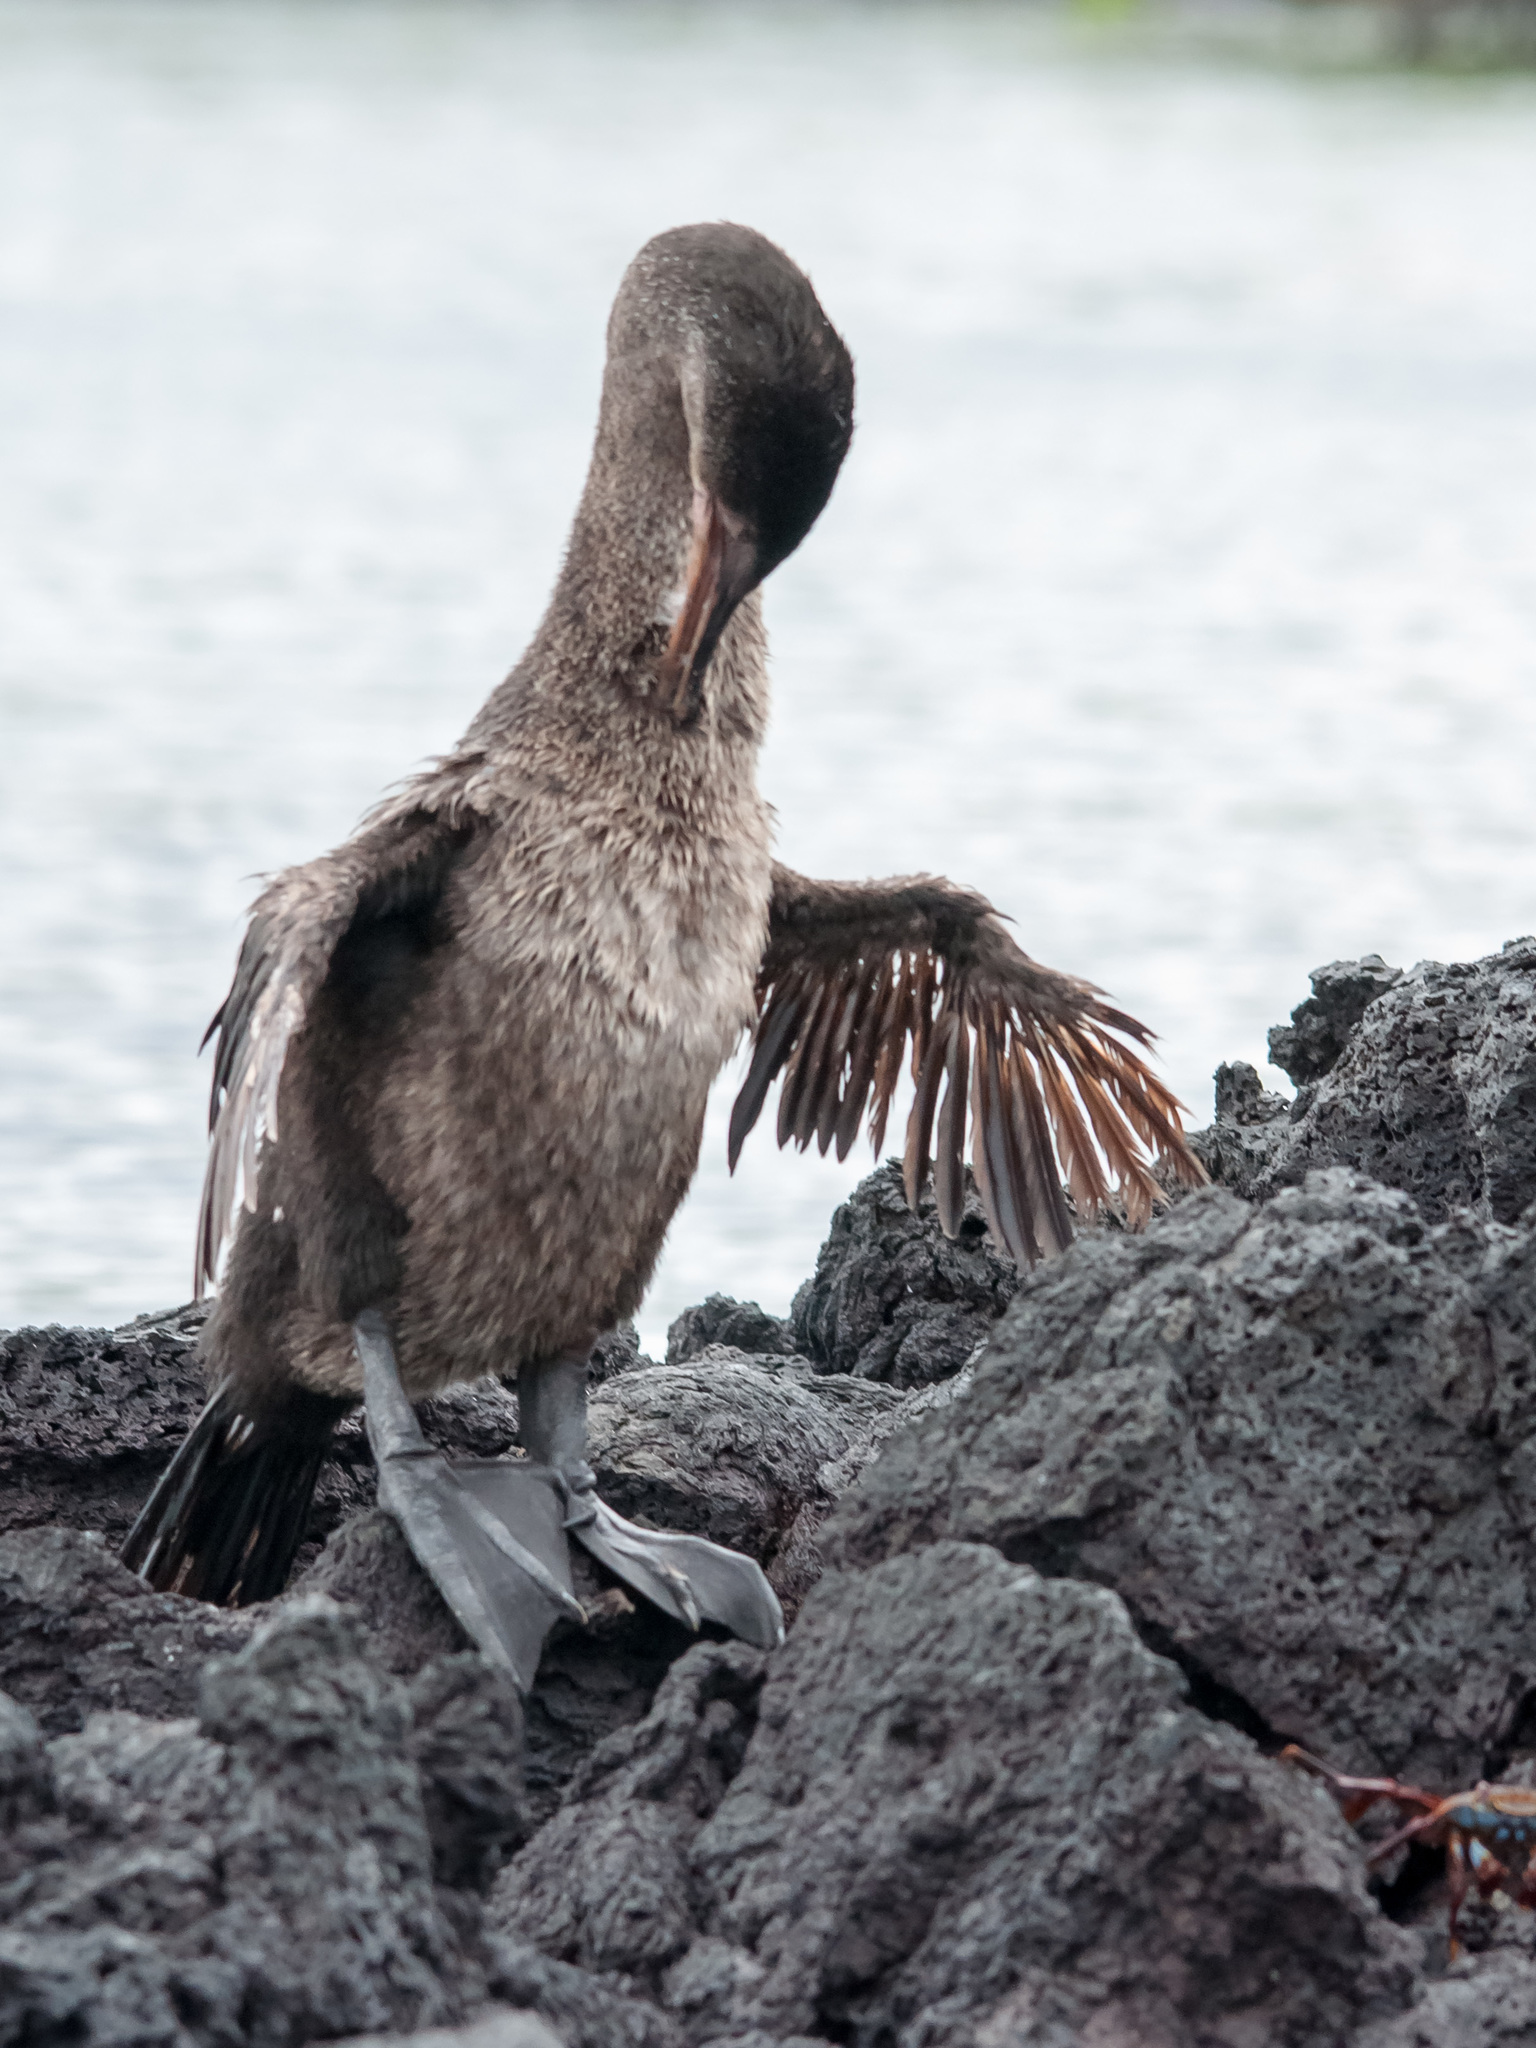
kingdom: Animalia
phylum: Chordata
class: Aves
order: Suliformes
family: Phalacrocoracidae
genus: Phalacrocorax
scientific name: Phalacrocorax harrisi
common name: Flightless cormorant
